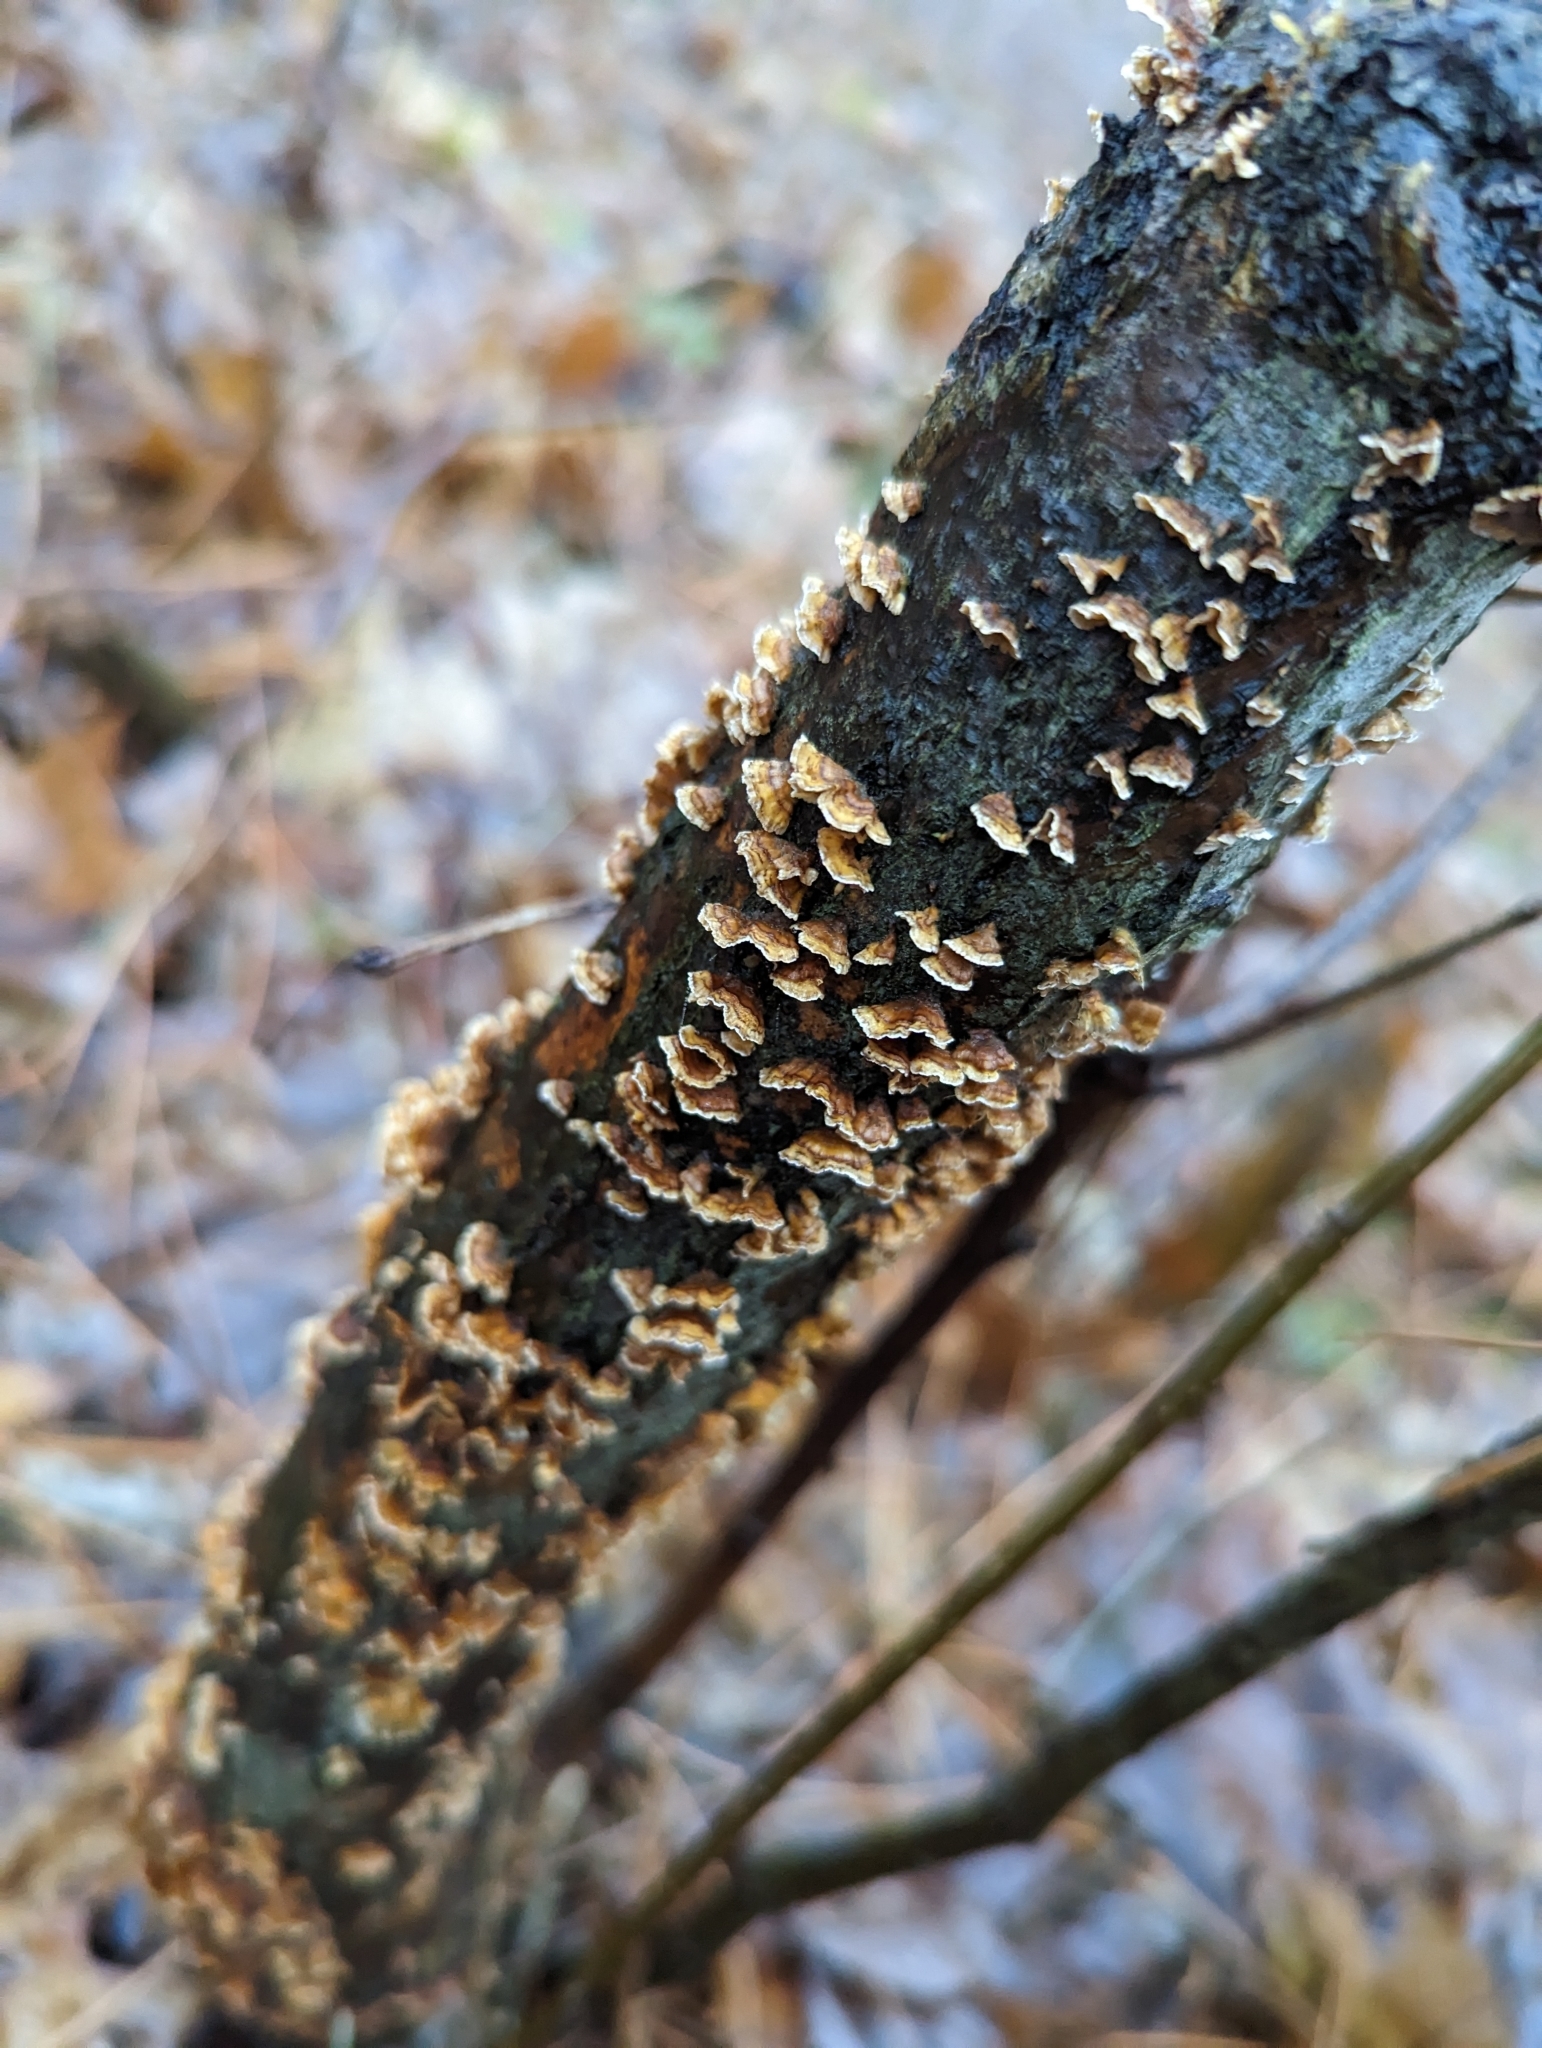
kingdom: Fungi
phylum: Basidiomycota
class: Agaricomycetes
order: Russulales
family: Stereaceae
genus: Stereum
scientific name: Stereum complicatum
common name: Crowded parchment
